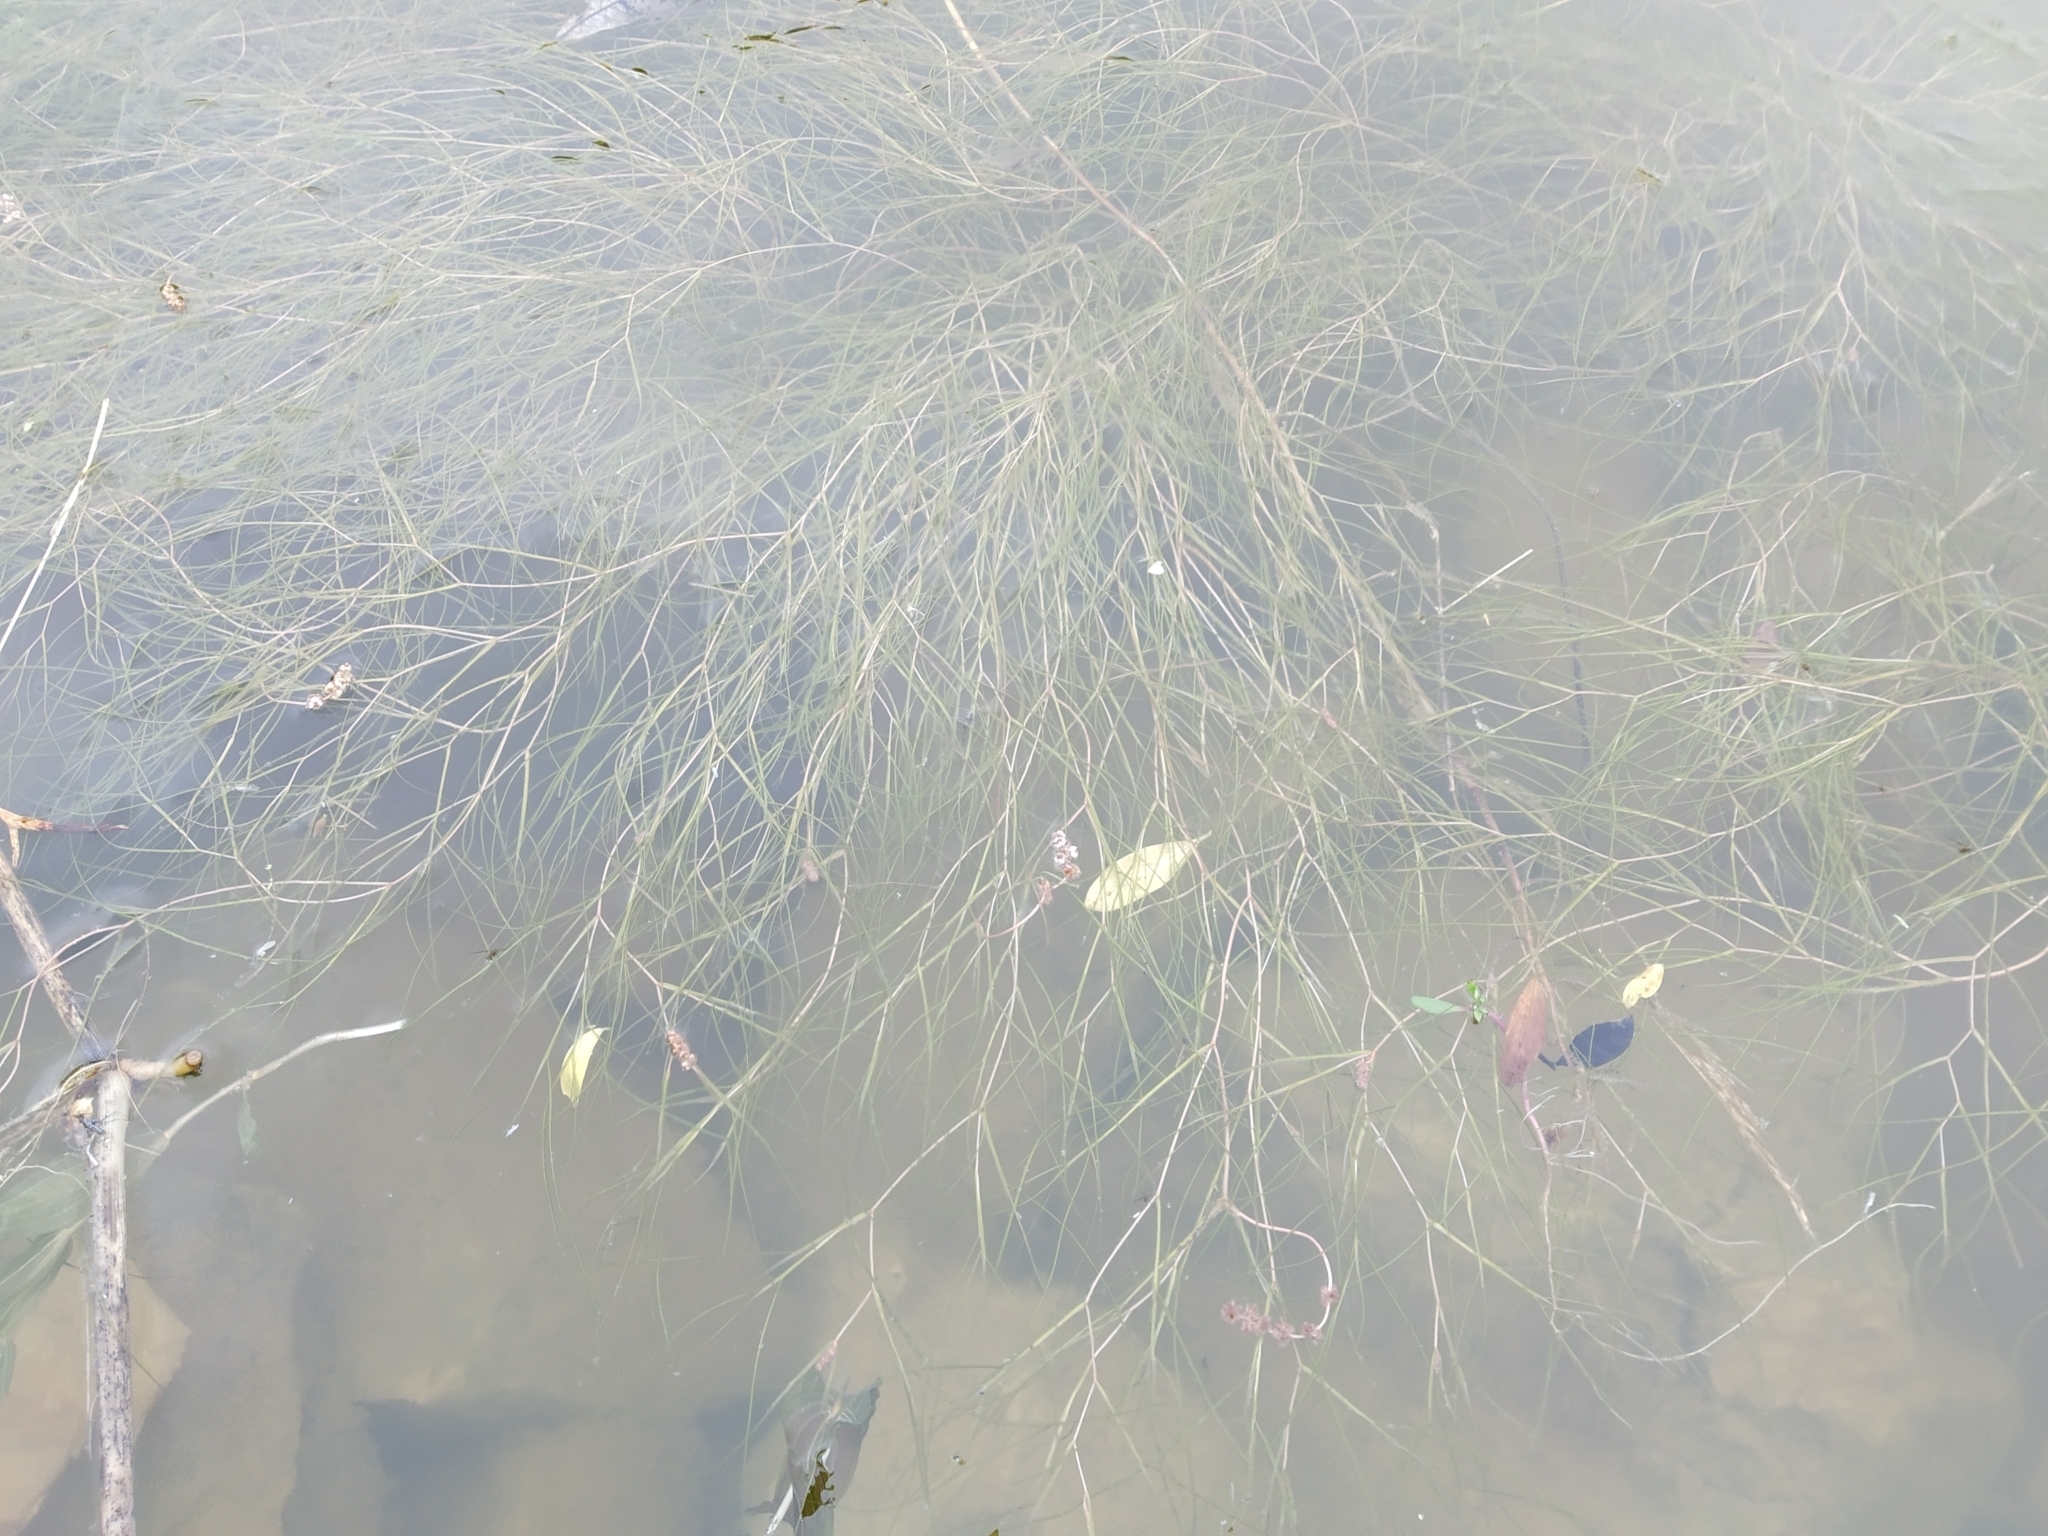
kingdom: Plantae
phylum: Tracheophyta
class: Liliopsida
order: Alismatales
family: Potamogetonaceae
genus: Stuckenia
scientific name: Stuckenia pectinata
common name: Sago pondweed
